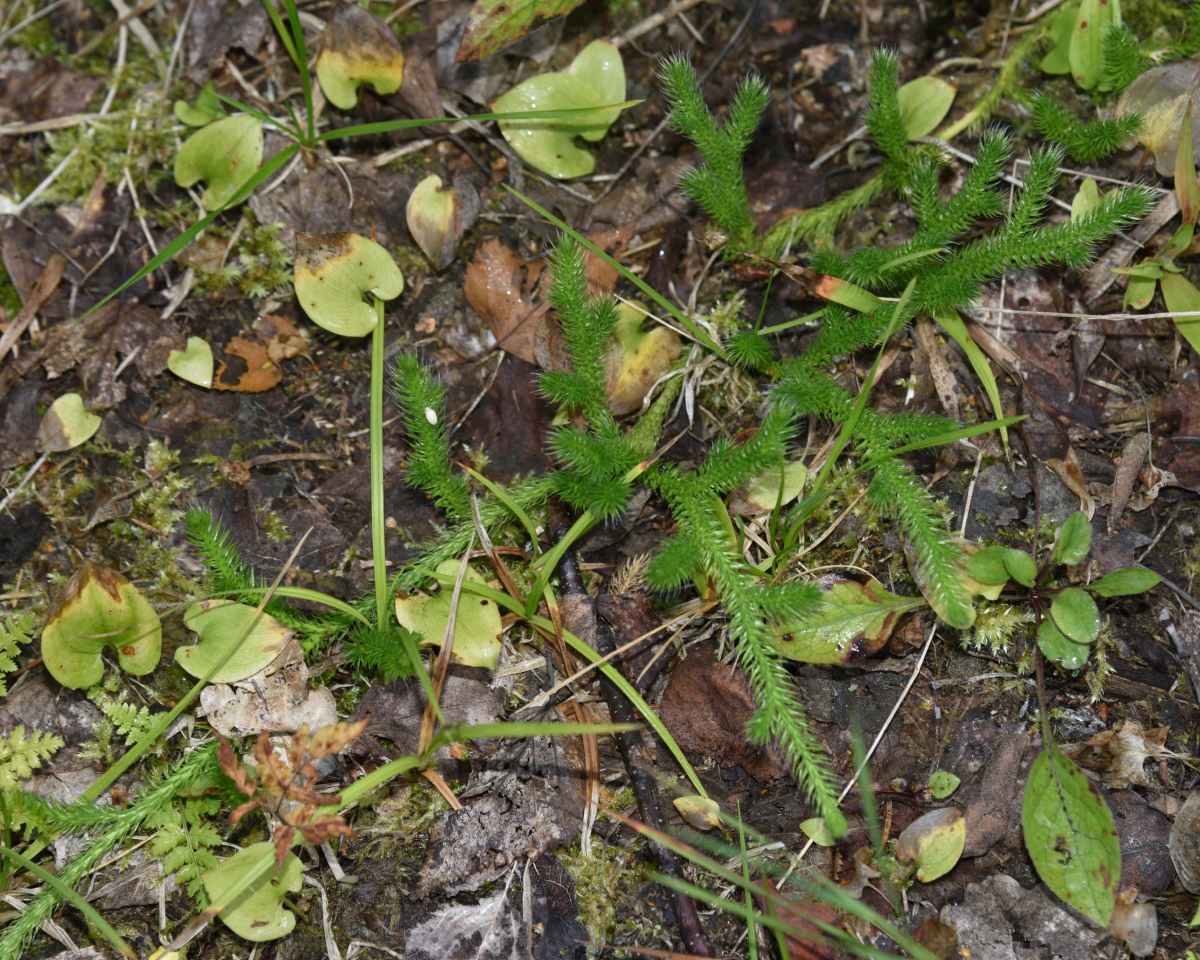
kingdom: Plantae
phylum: Tracheophyta
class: Lycopodiopsida
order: Lycopodiales
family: Lycopodiaceae
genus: Lycopodium
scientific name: Lycopodium clavatum
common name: Stag's-horn clubmoss
